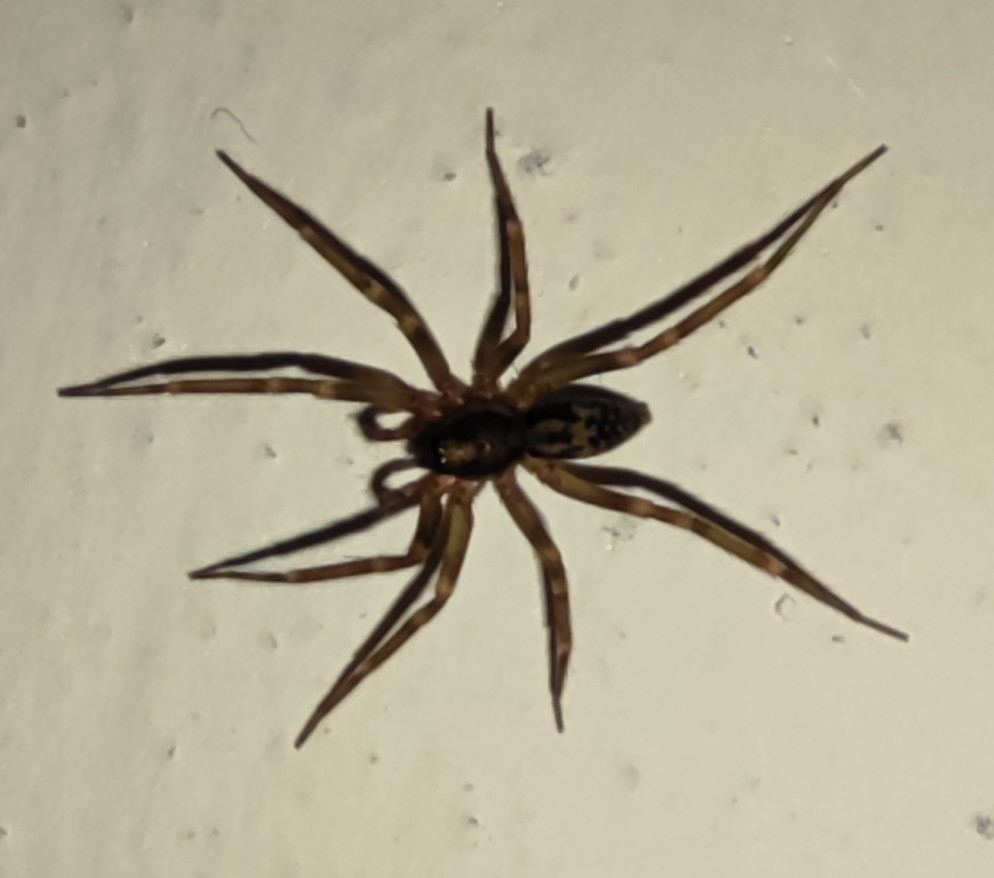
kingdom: Animalia
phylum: Arthropoda
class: Arachnida
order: Araneae
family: Liocranidae
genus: Liocranum
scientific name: Liocranum rupicola
